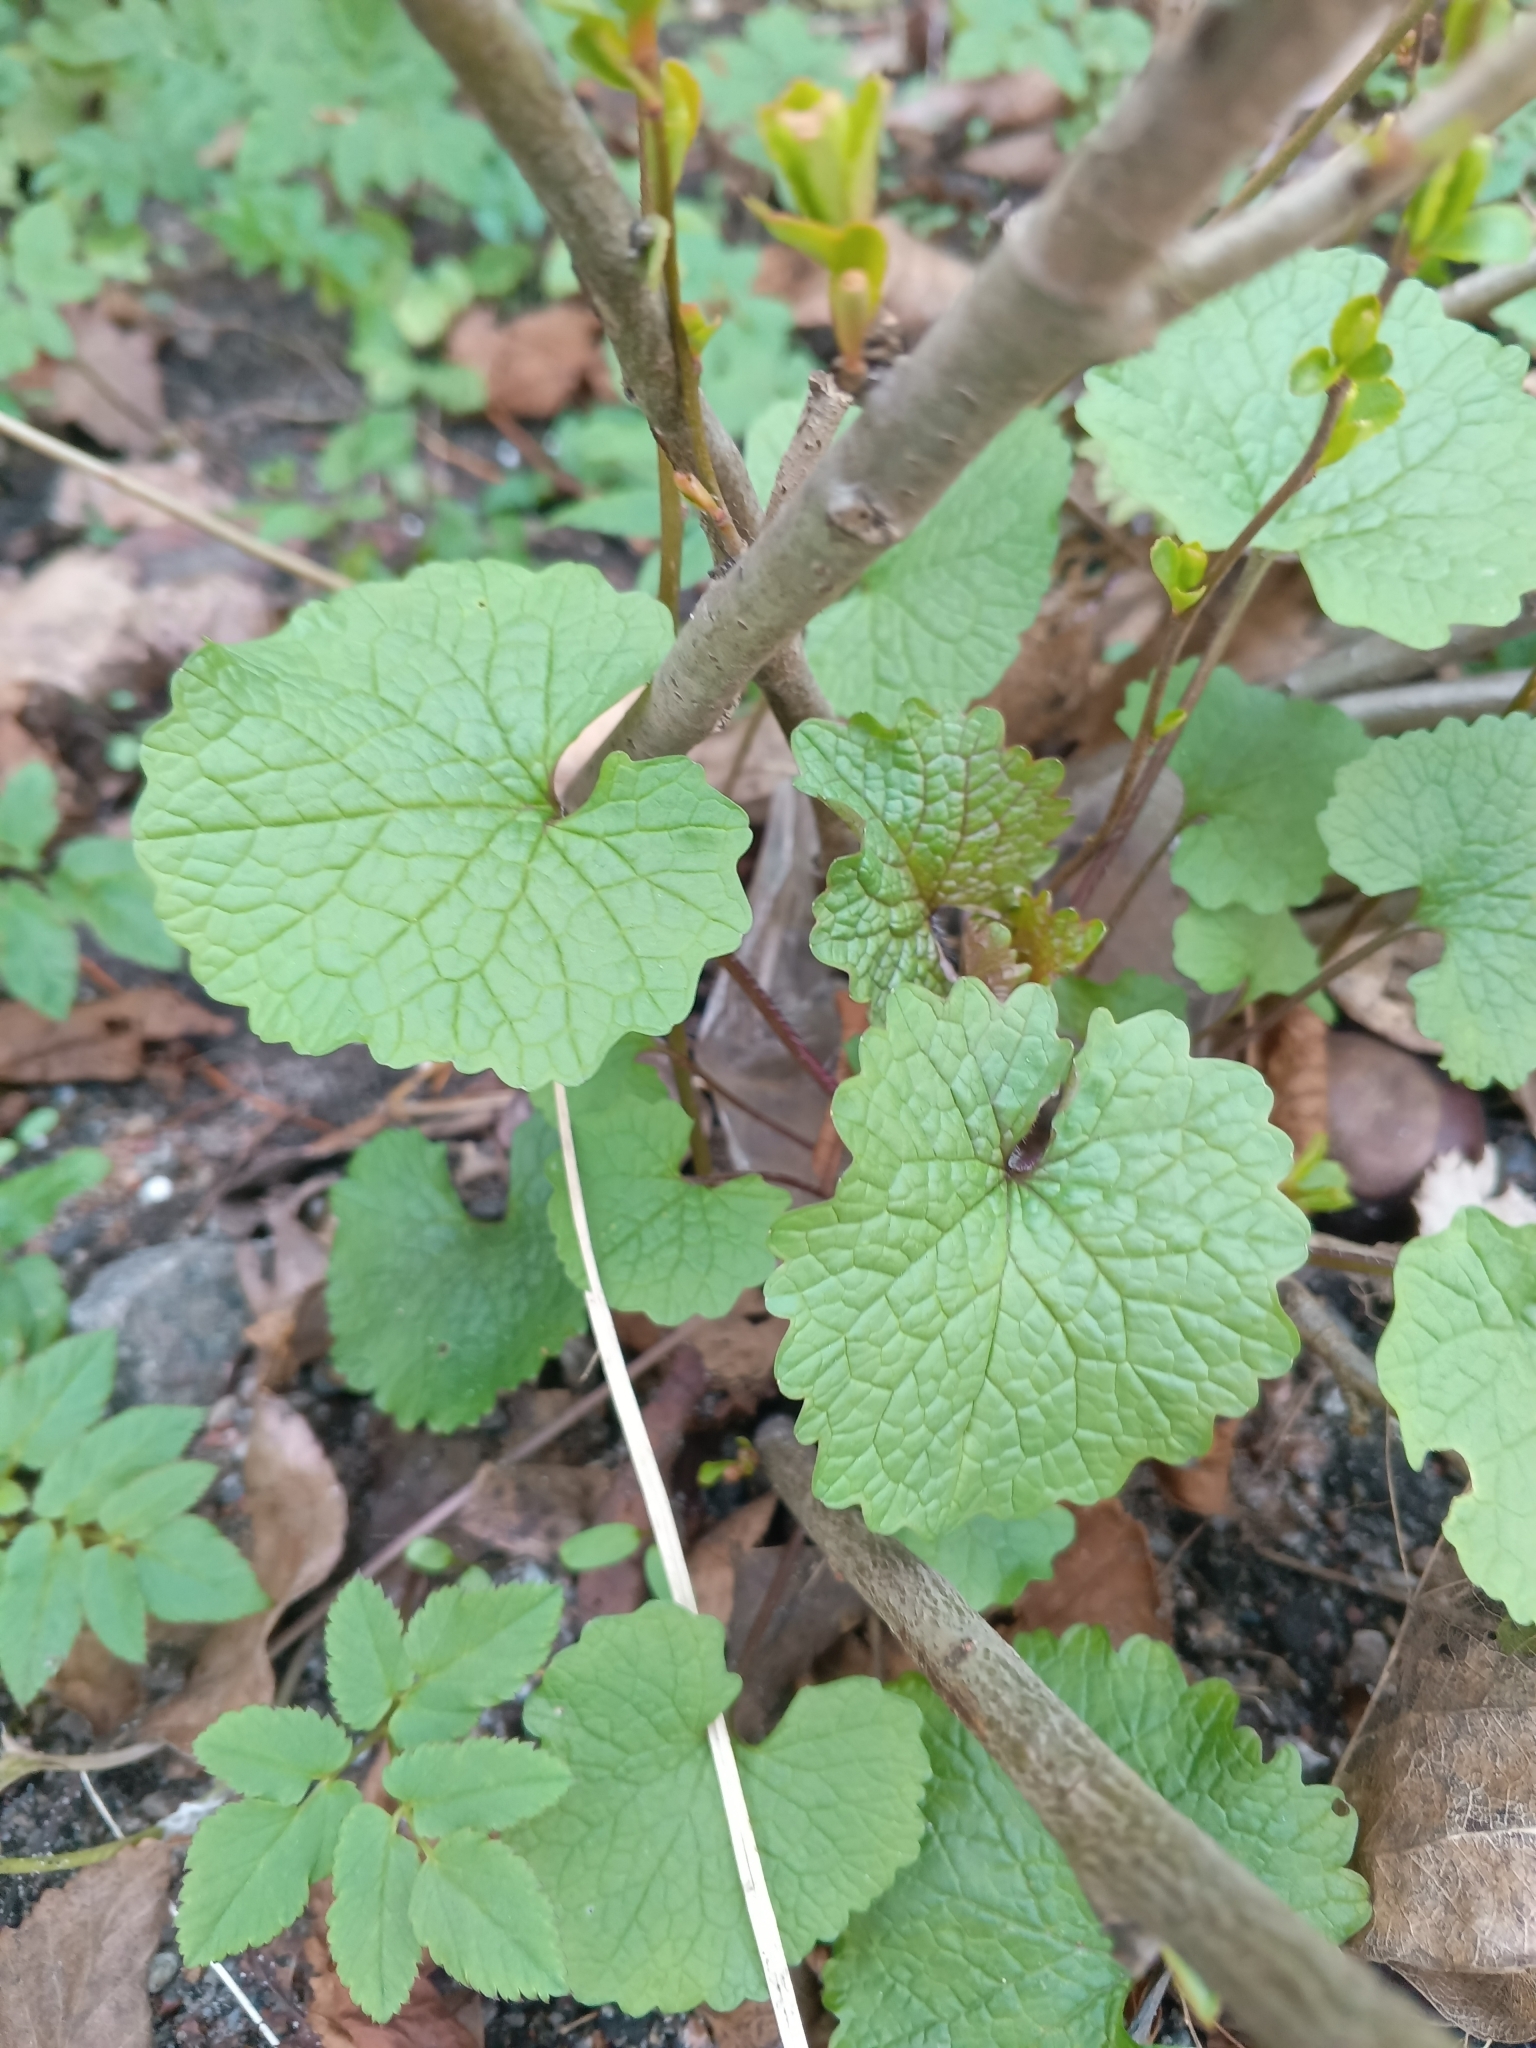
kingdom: Plantae
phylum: Tracheophyta
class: Magnoliopsida
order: Brassicales
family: Brassicaceae
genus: Alliaria
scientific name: Alliaria petiolata
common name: Garlic mustard
